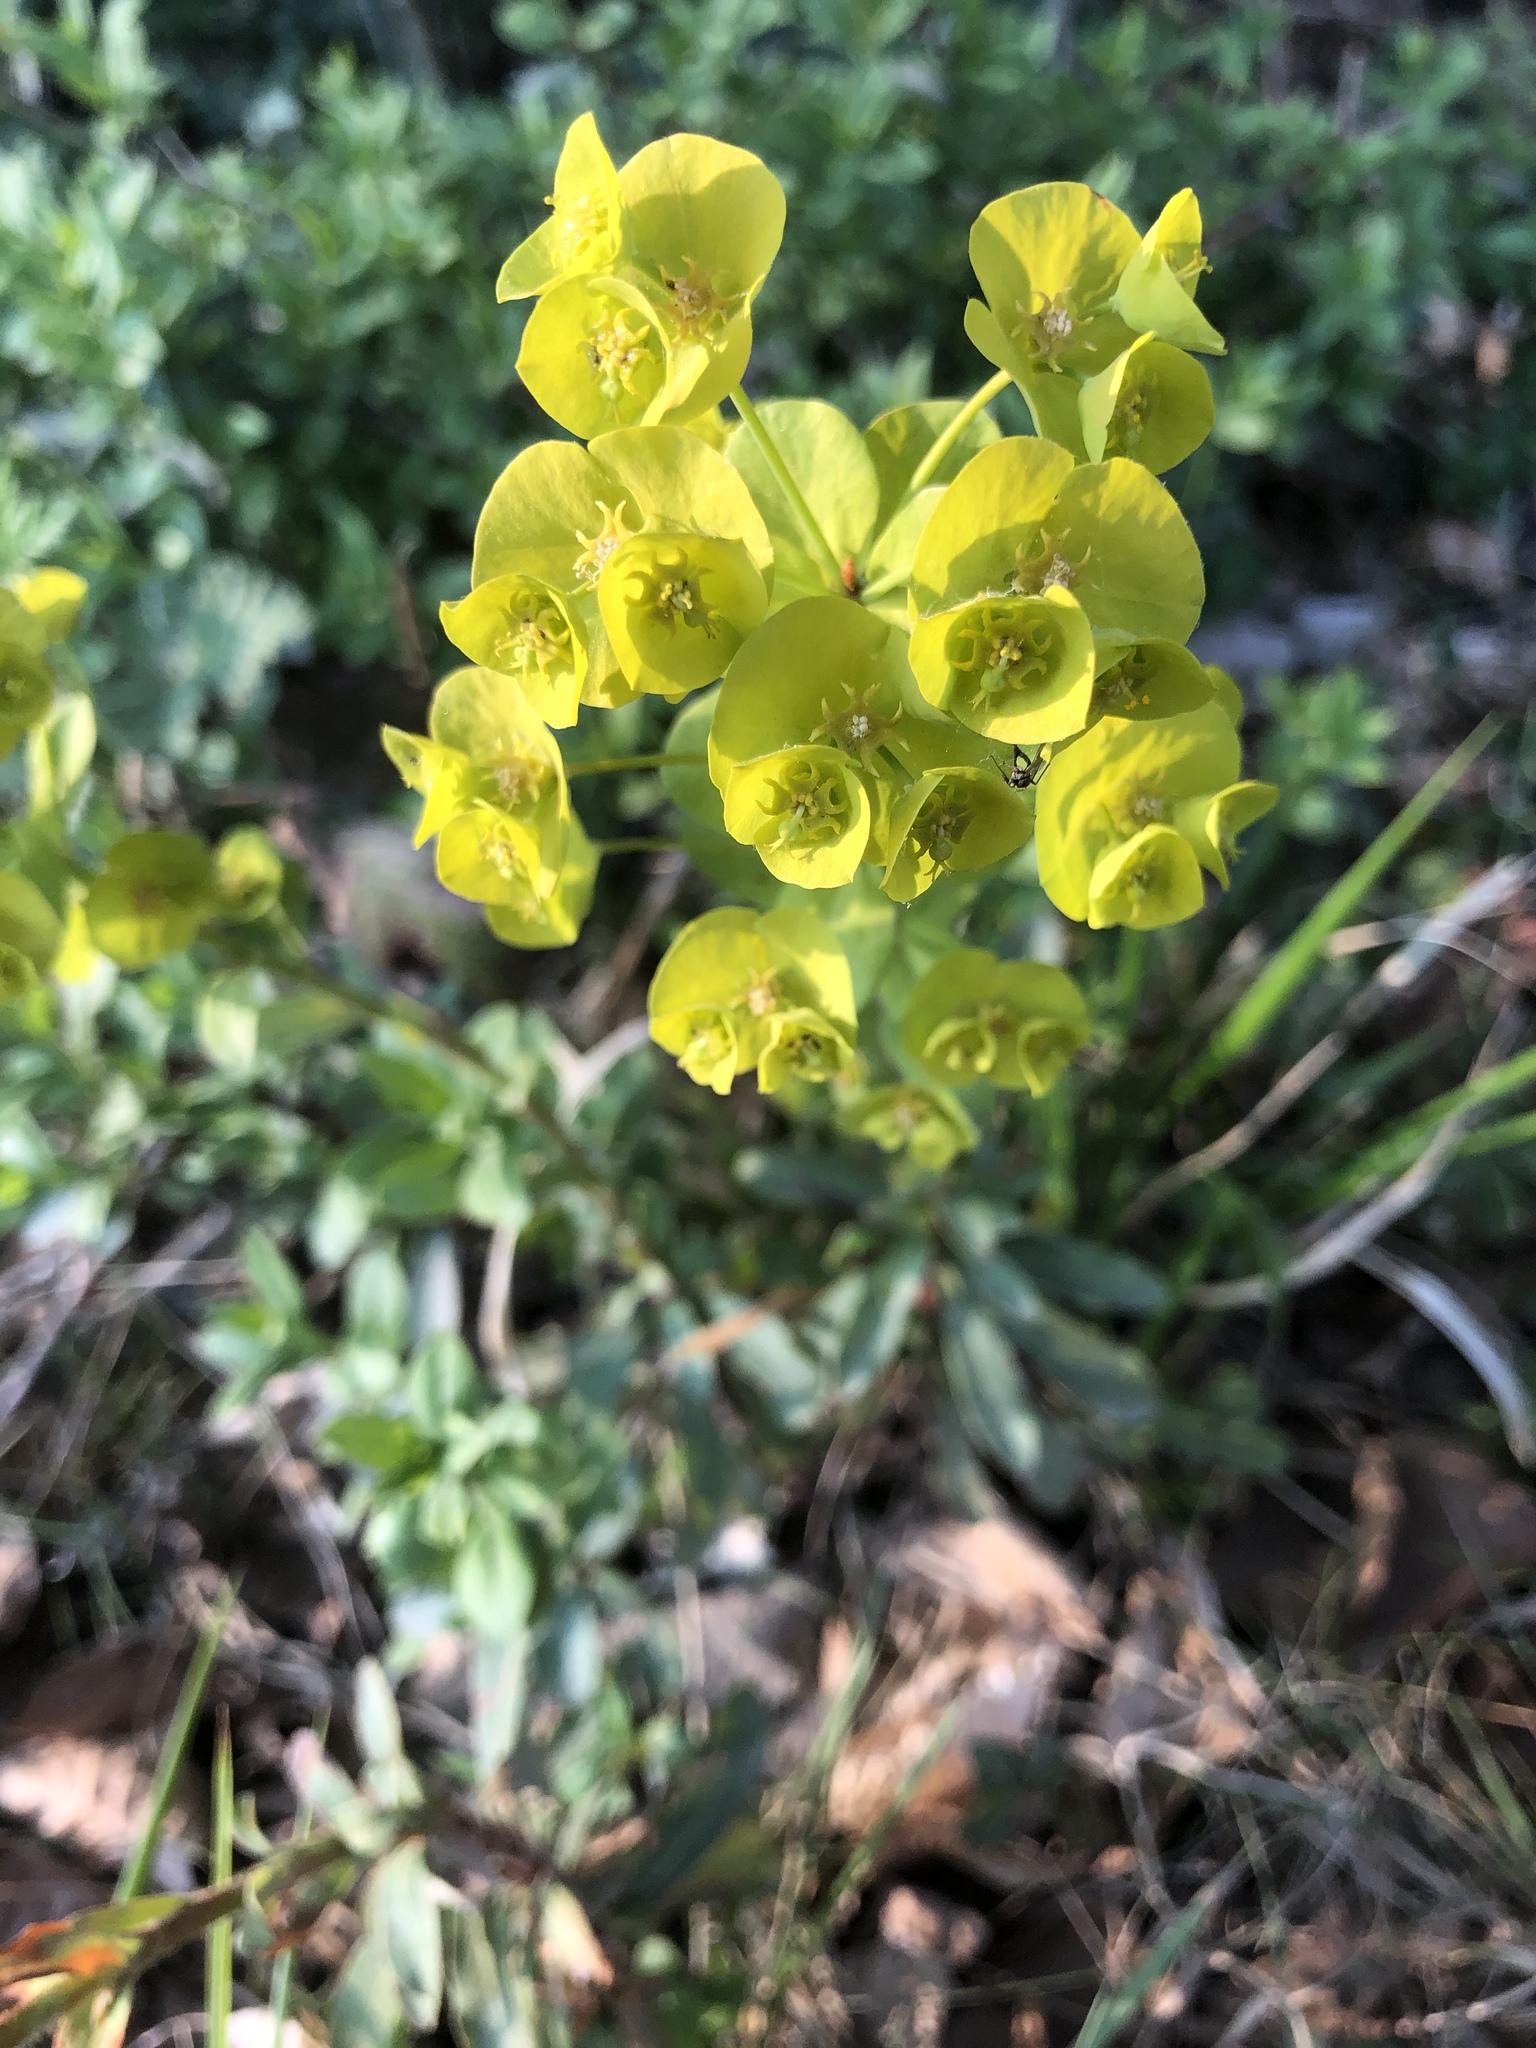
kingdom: Plantae
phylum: Tracheophyta
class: Magnoliopsida
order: Malpighiales
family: Euphorbiaceae
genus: Euphorbia
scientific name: Euphorbia amygdaloides
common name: Wood spurge
